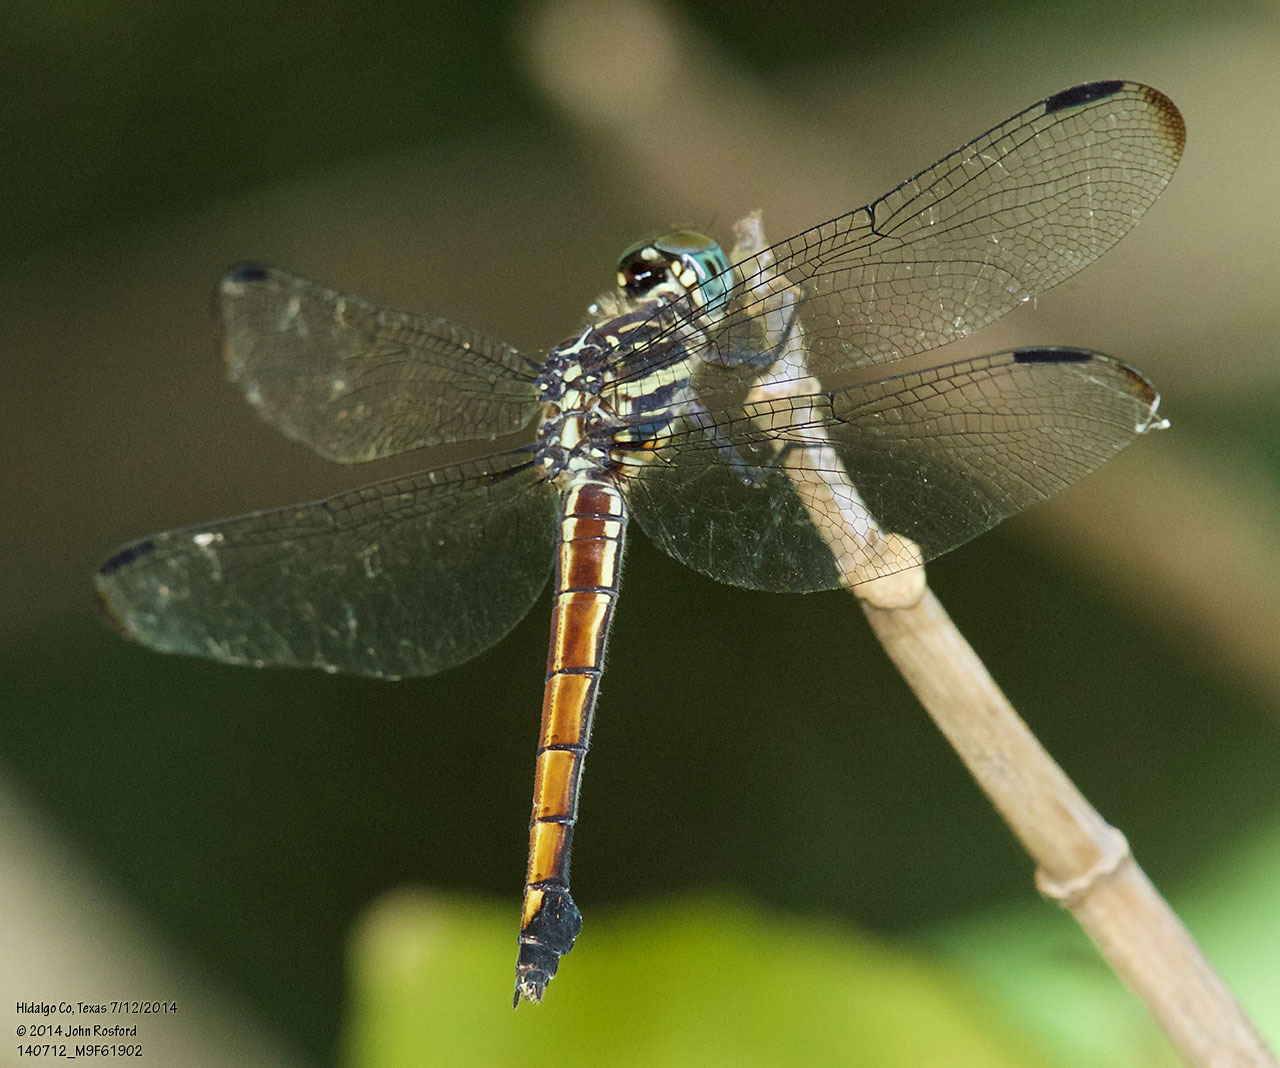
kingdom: Animalia
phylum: Arthropoda
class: Insecta
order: Odonata
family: Libellulidae
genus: Cannaphila
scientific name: Cannaphila insularis
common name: Gray-waisted skimmer
